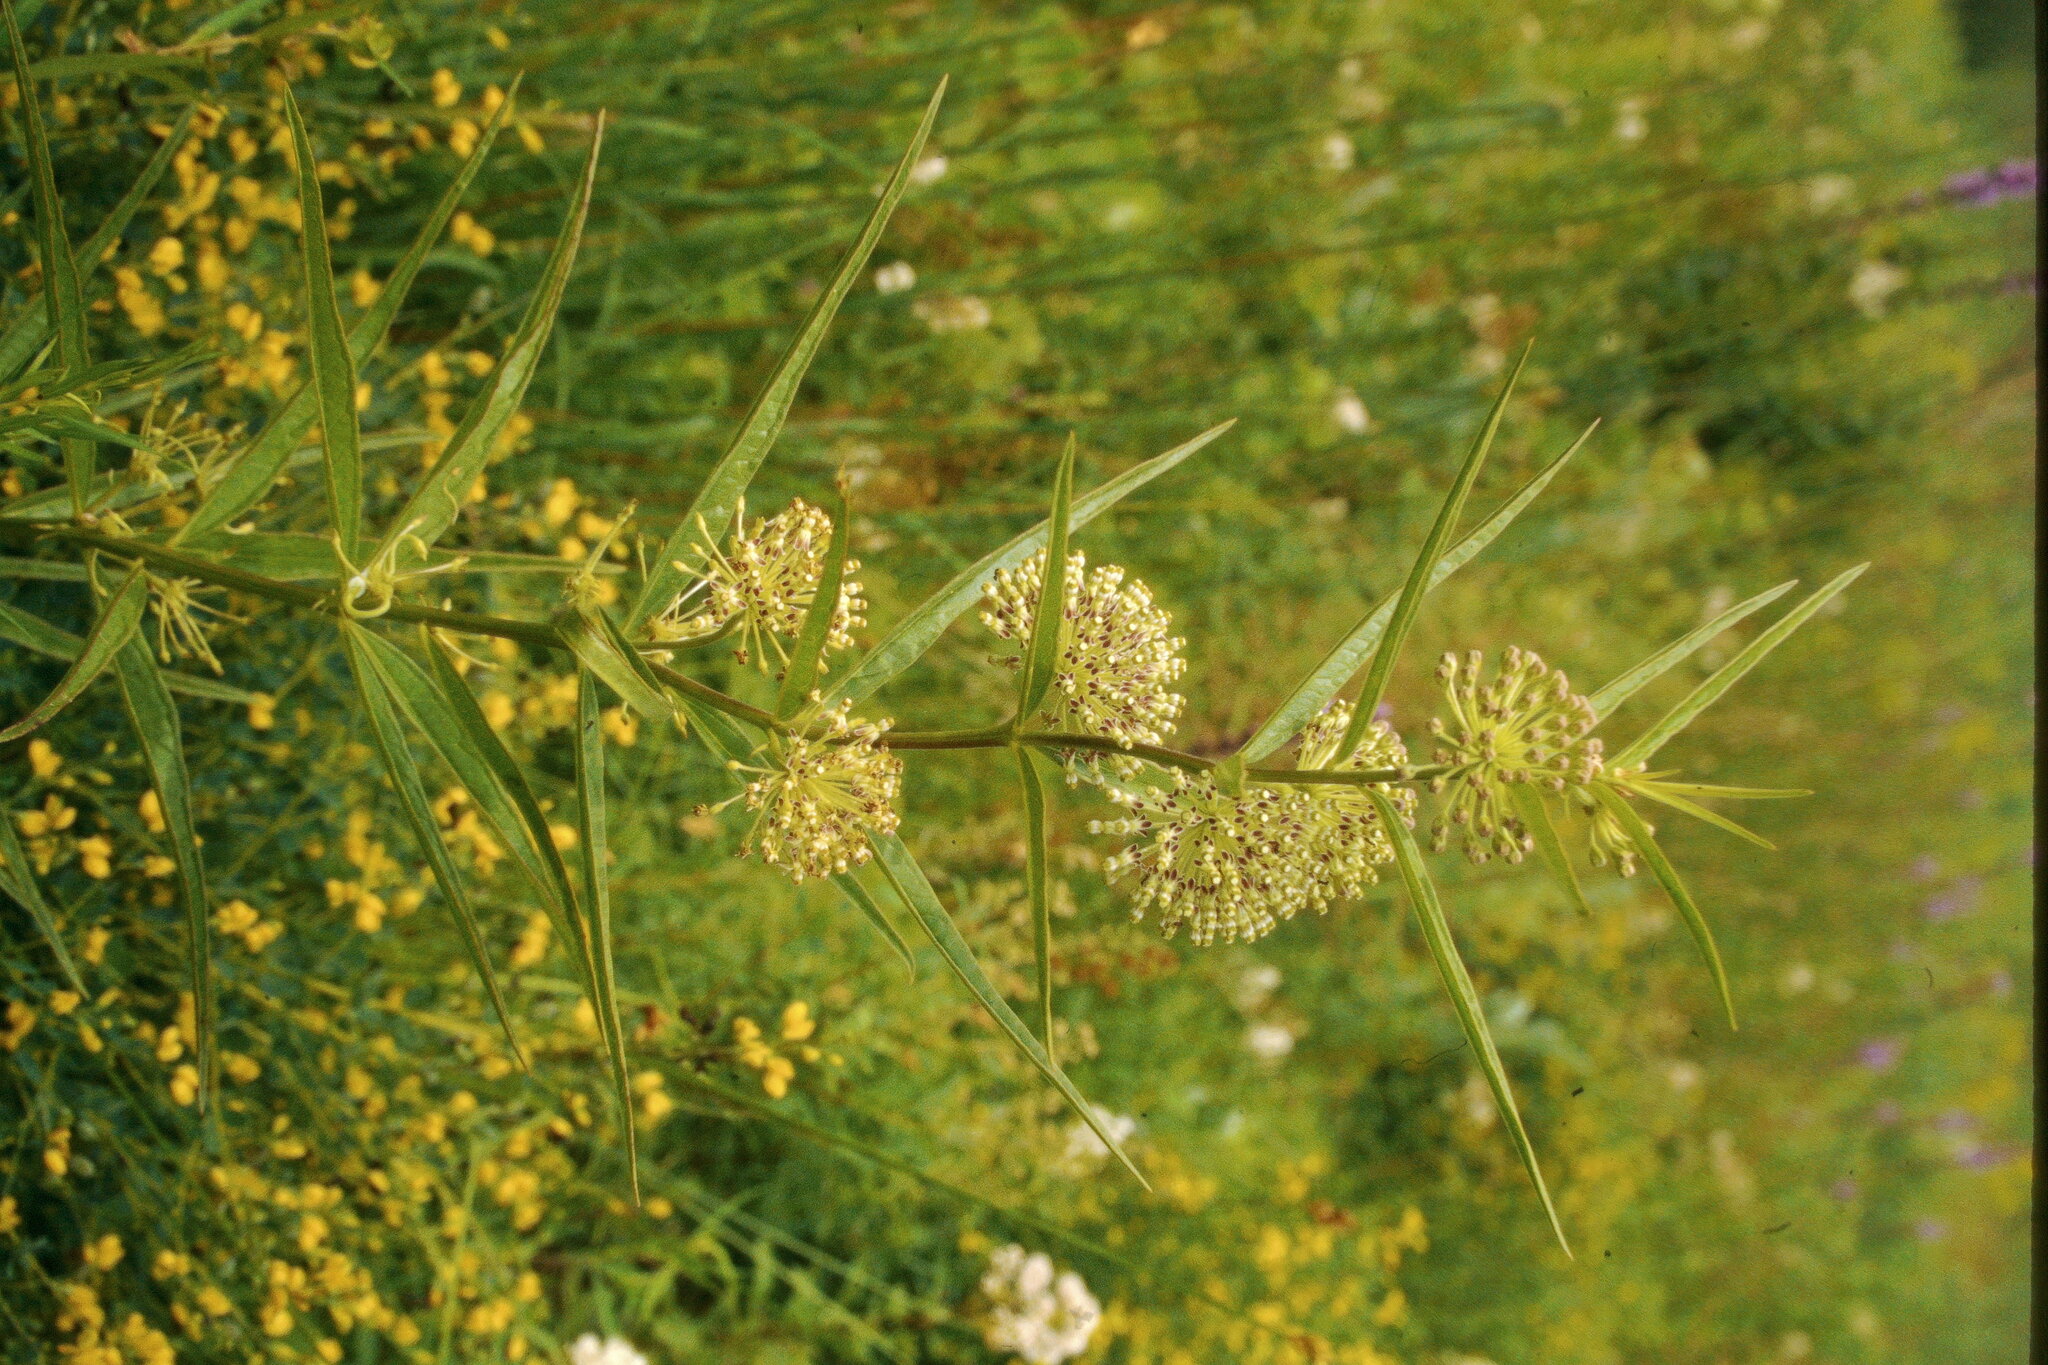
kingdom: Plantae
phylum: Tracheophyta
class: Magnoliopsida
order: Gentianales
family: Apocynaceae
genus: Asclepias
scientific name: Asclepias hirtella
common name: Prairie milkweed
